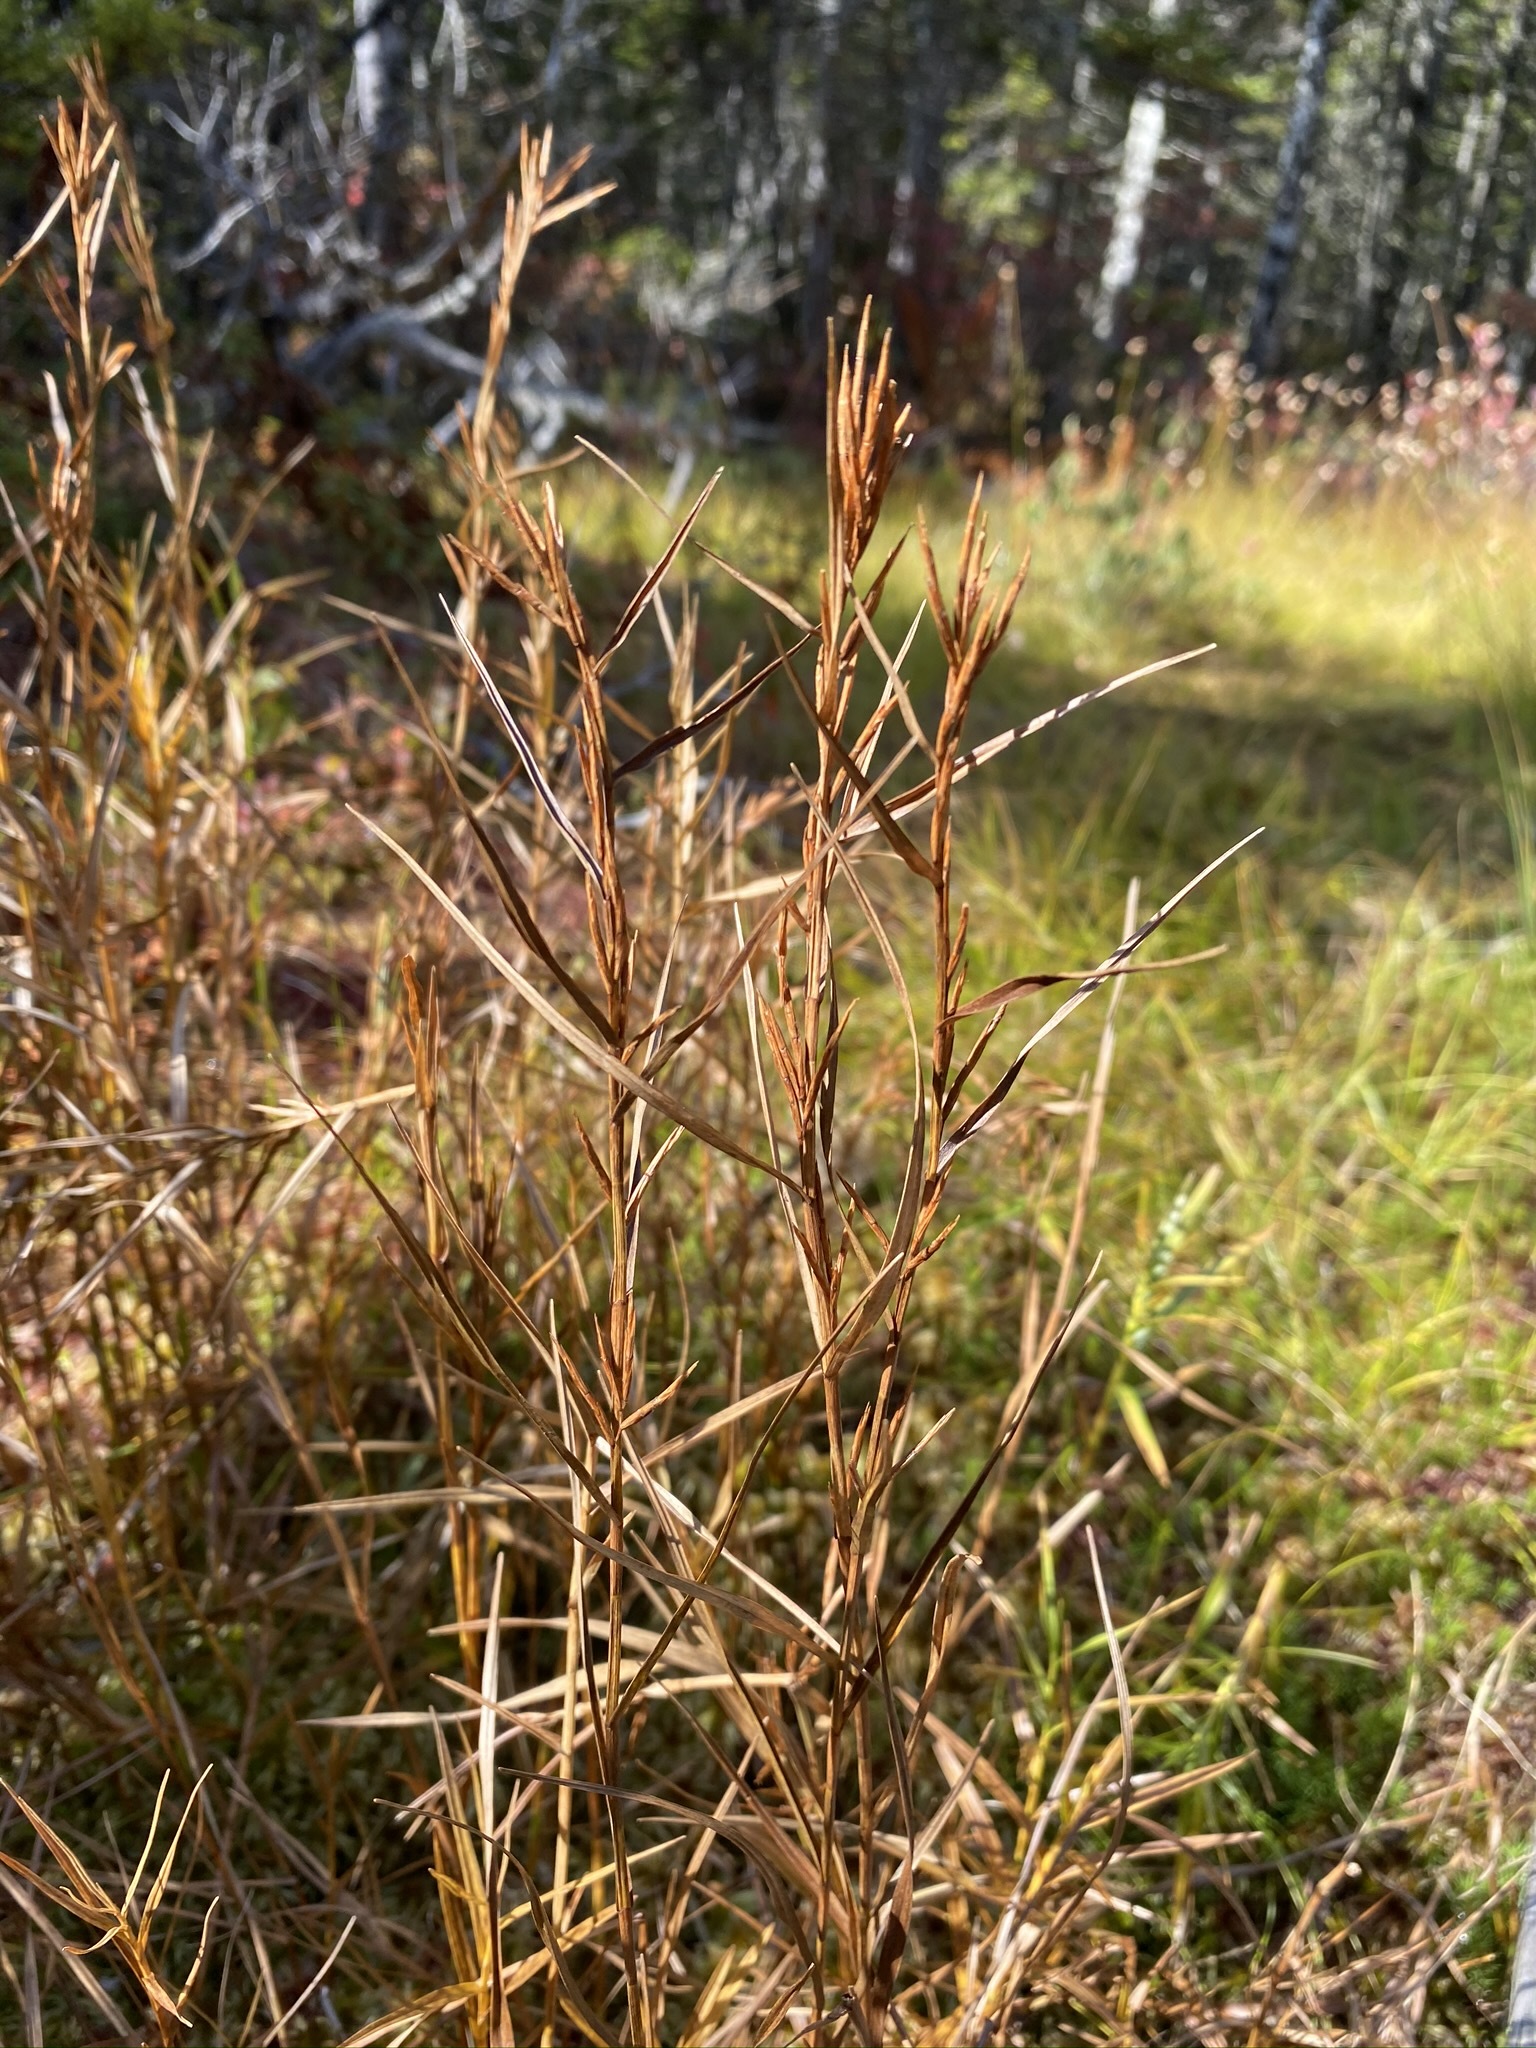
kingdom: Plantae
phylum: Tracheophyta
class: Liliopsida
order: Poales
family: Cyperaceae
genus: Dulichium
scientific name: Dulichium arundinaceum
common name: Three-way sedge
